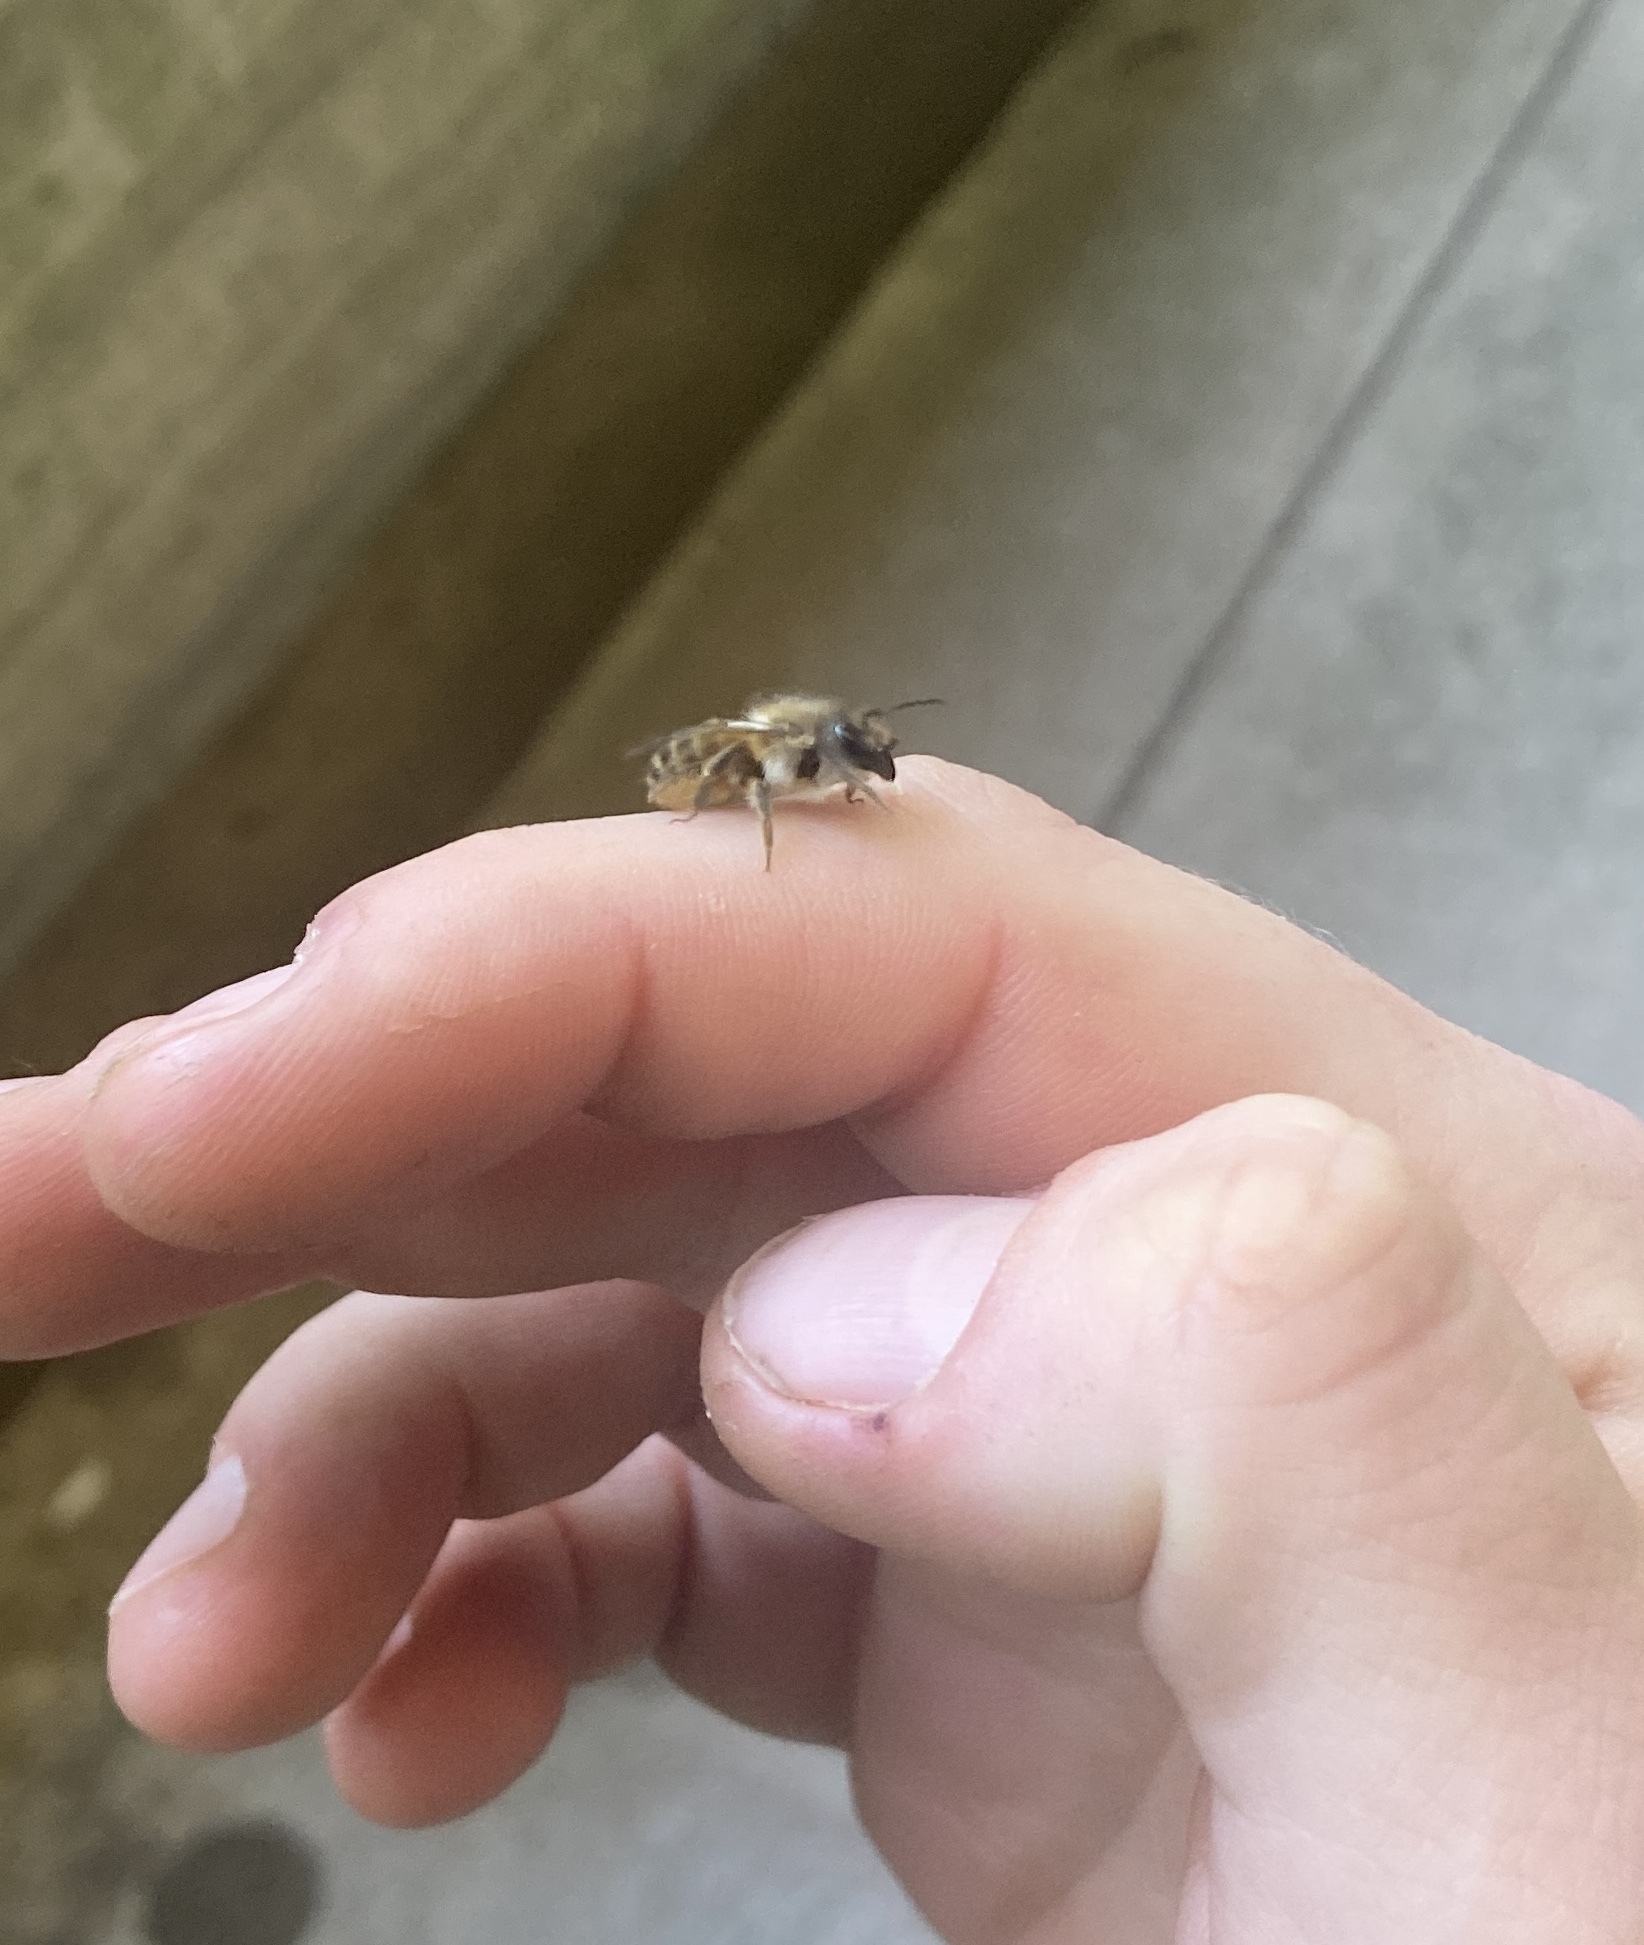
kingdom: Animalia
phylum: Arthropoda
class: Insecta
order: Hymenoptera
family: Megachilidae
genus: Osmia
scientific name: Osmia cornifrons
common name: Horn-faced bee
